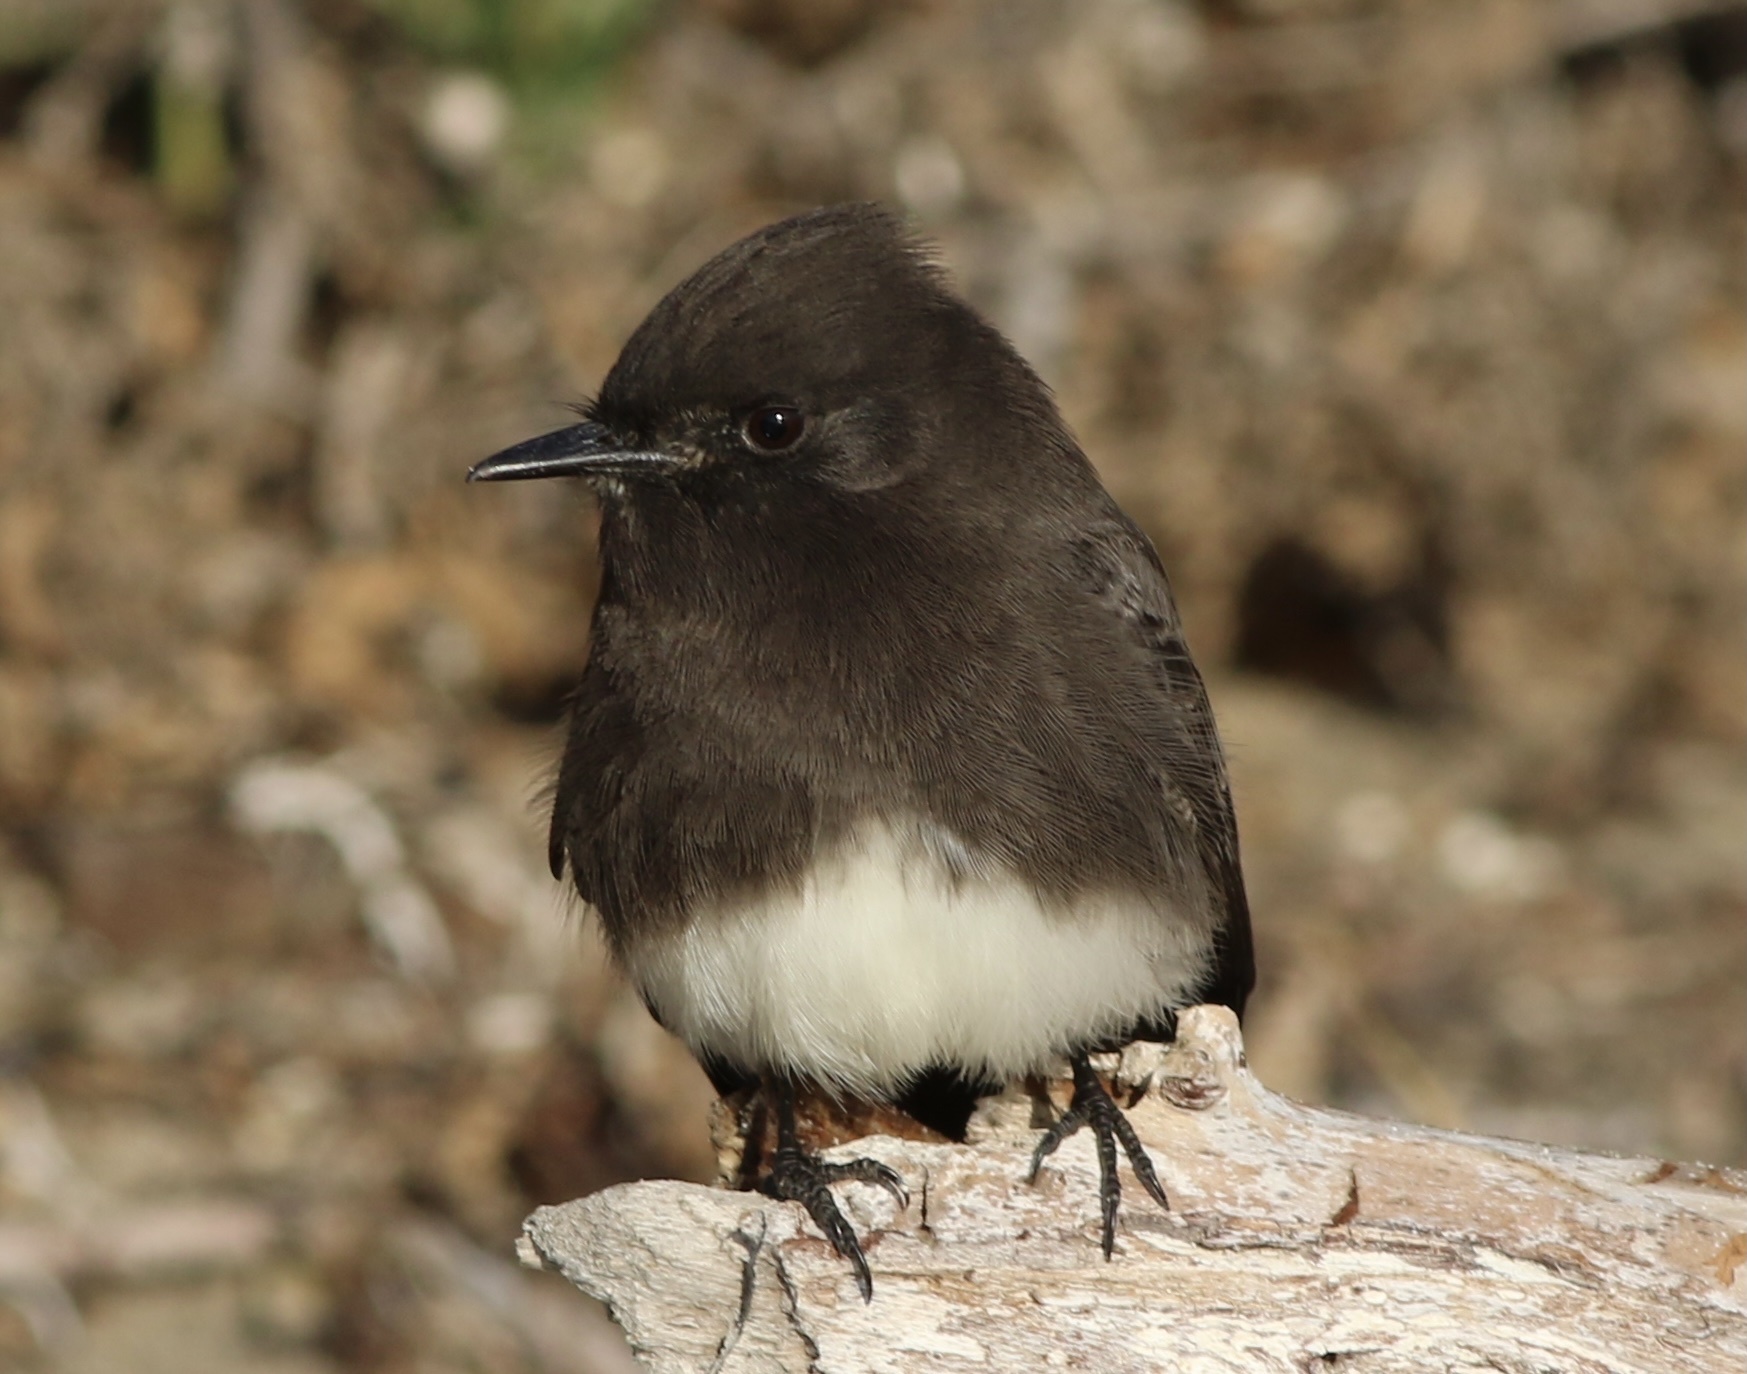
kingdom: Animalia
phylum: Chordata
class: Aves
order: Passeriformes
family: Tyrannidae
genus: Sayornis
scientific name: Sayornis nigricans
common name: Black phoebe
